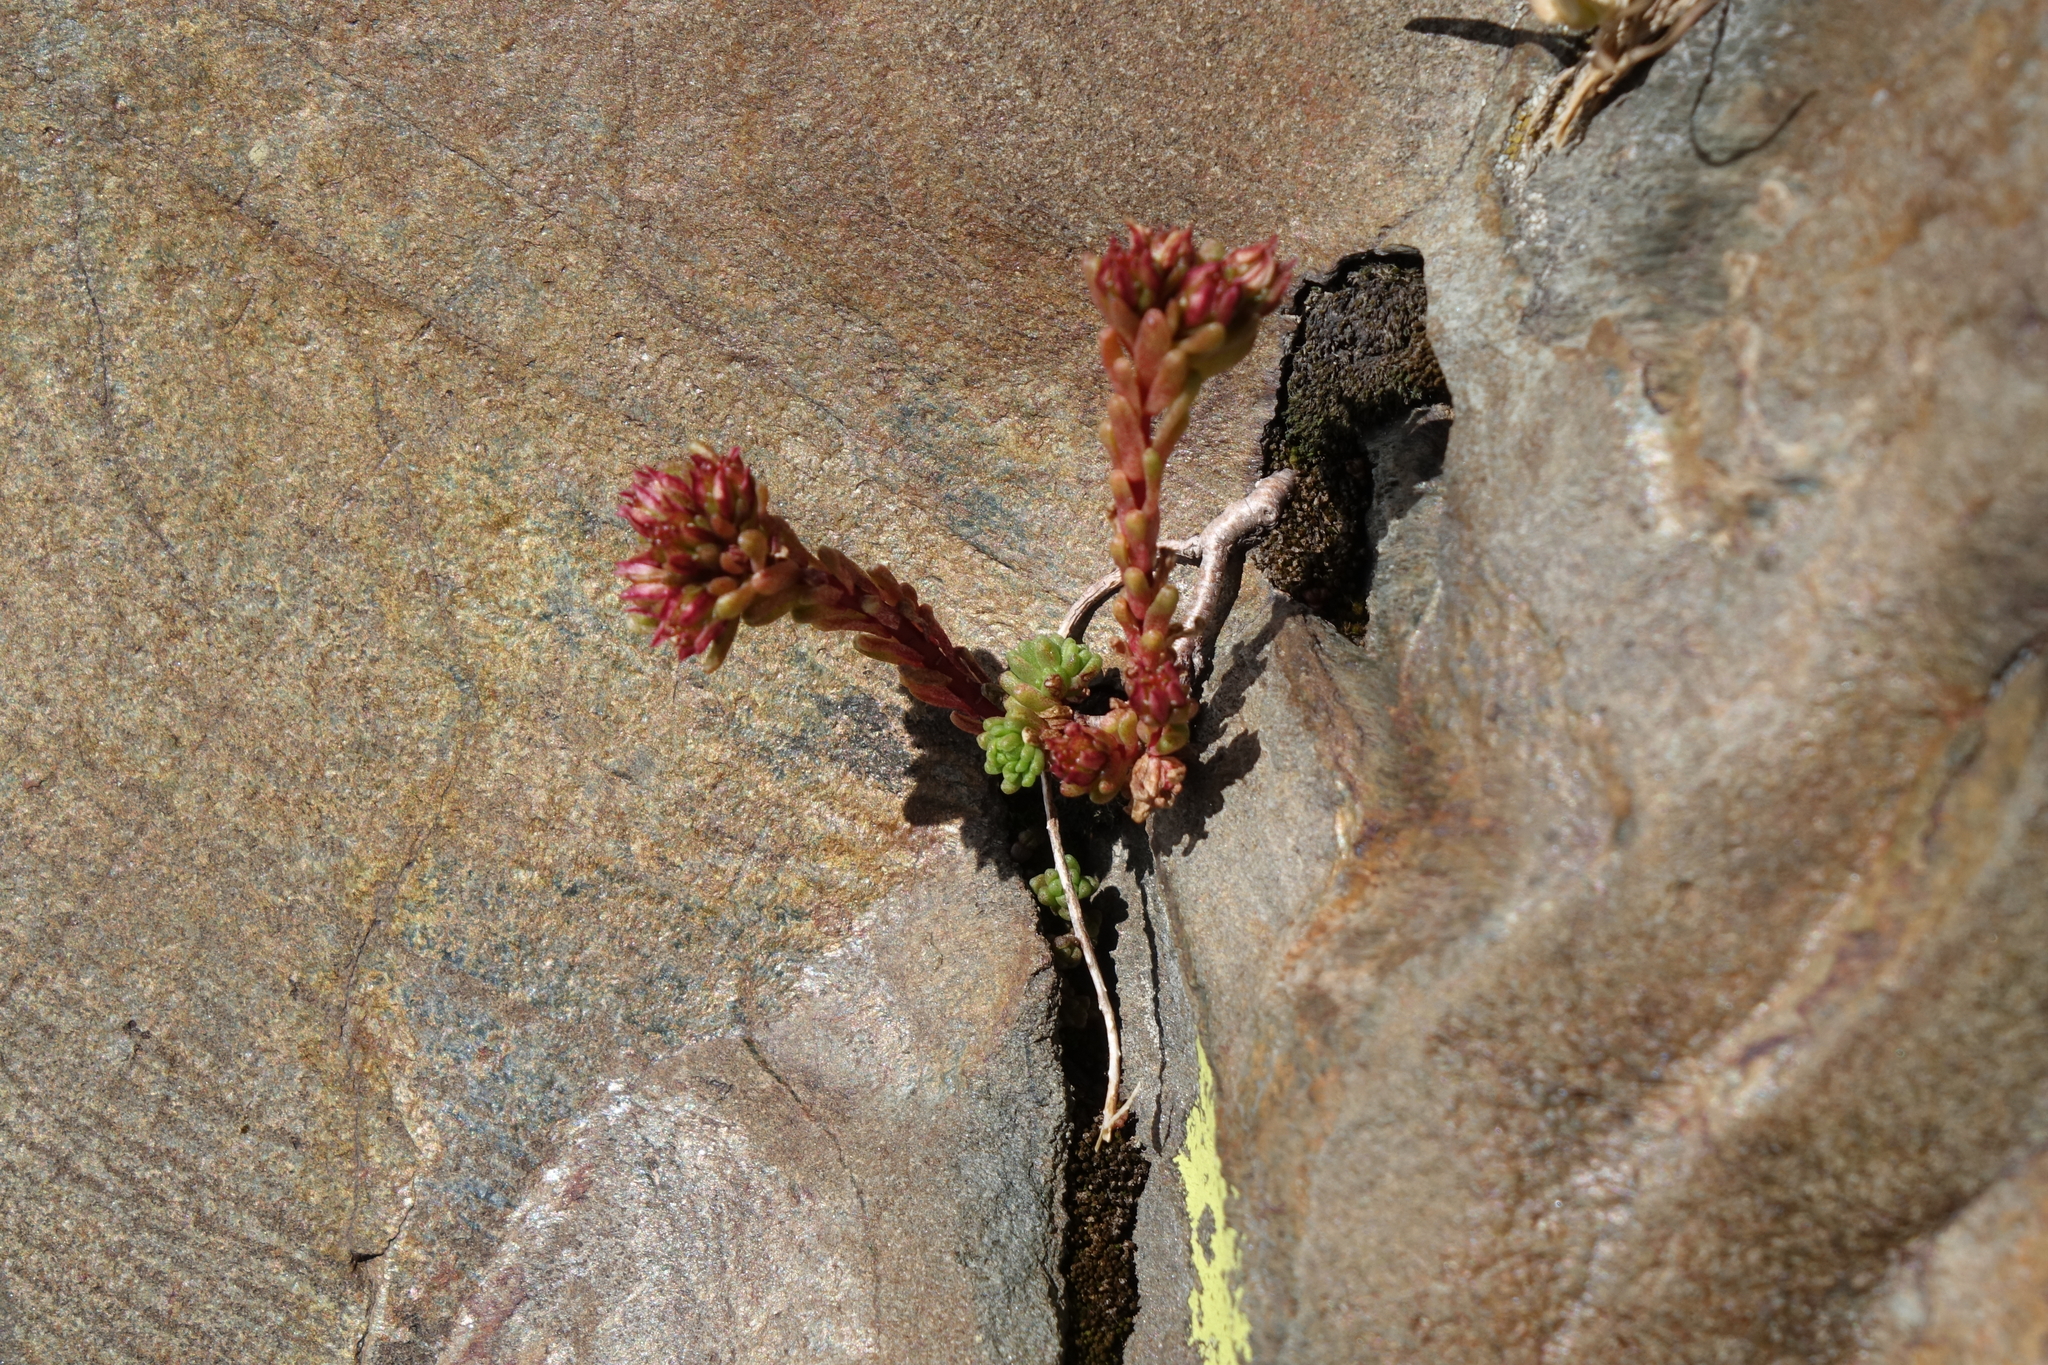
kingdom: Plantae
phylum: Tracheophyta
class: Magnoliopsida
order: Saxifragales
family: Crassulaceae
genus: Sedum
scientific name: Sedum tenellum
